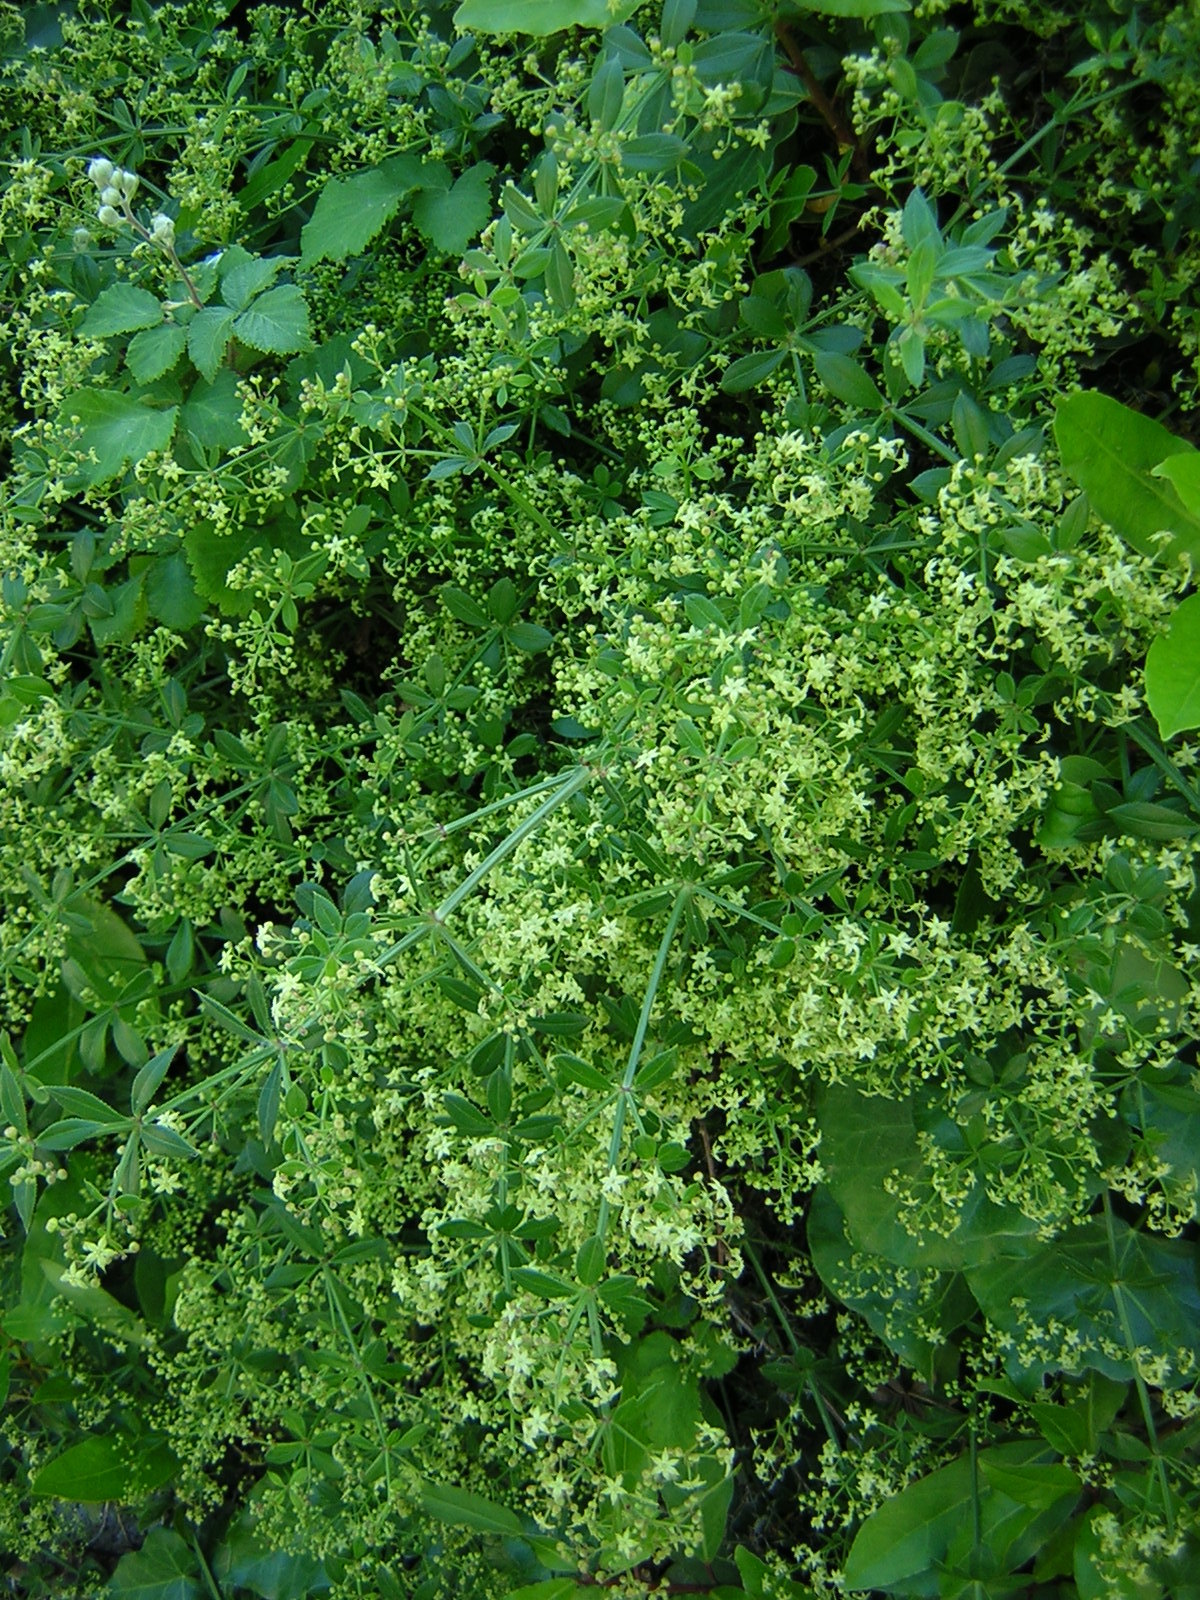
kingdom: Plantae
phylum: Tracheophyta
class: Magnoliopsida
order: Gentianales
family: Rubiaceae
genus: Rubia
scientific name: Rubia peregrina
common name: Wild madder
